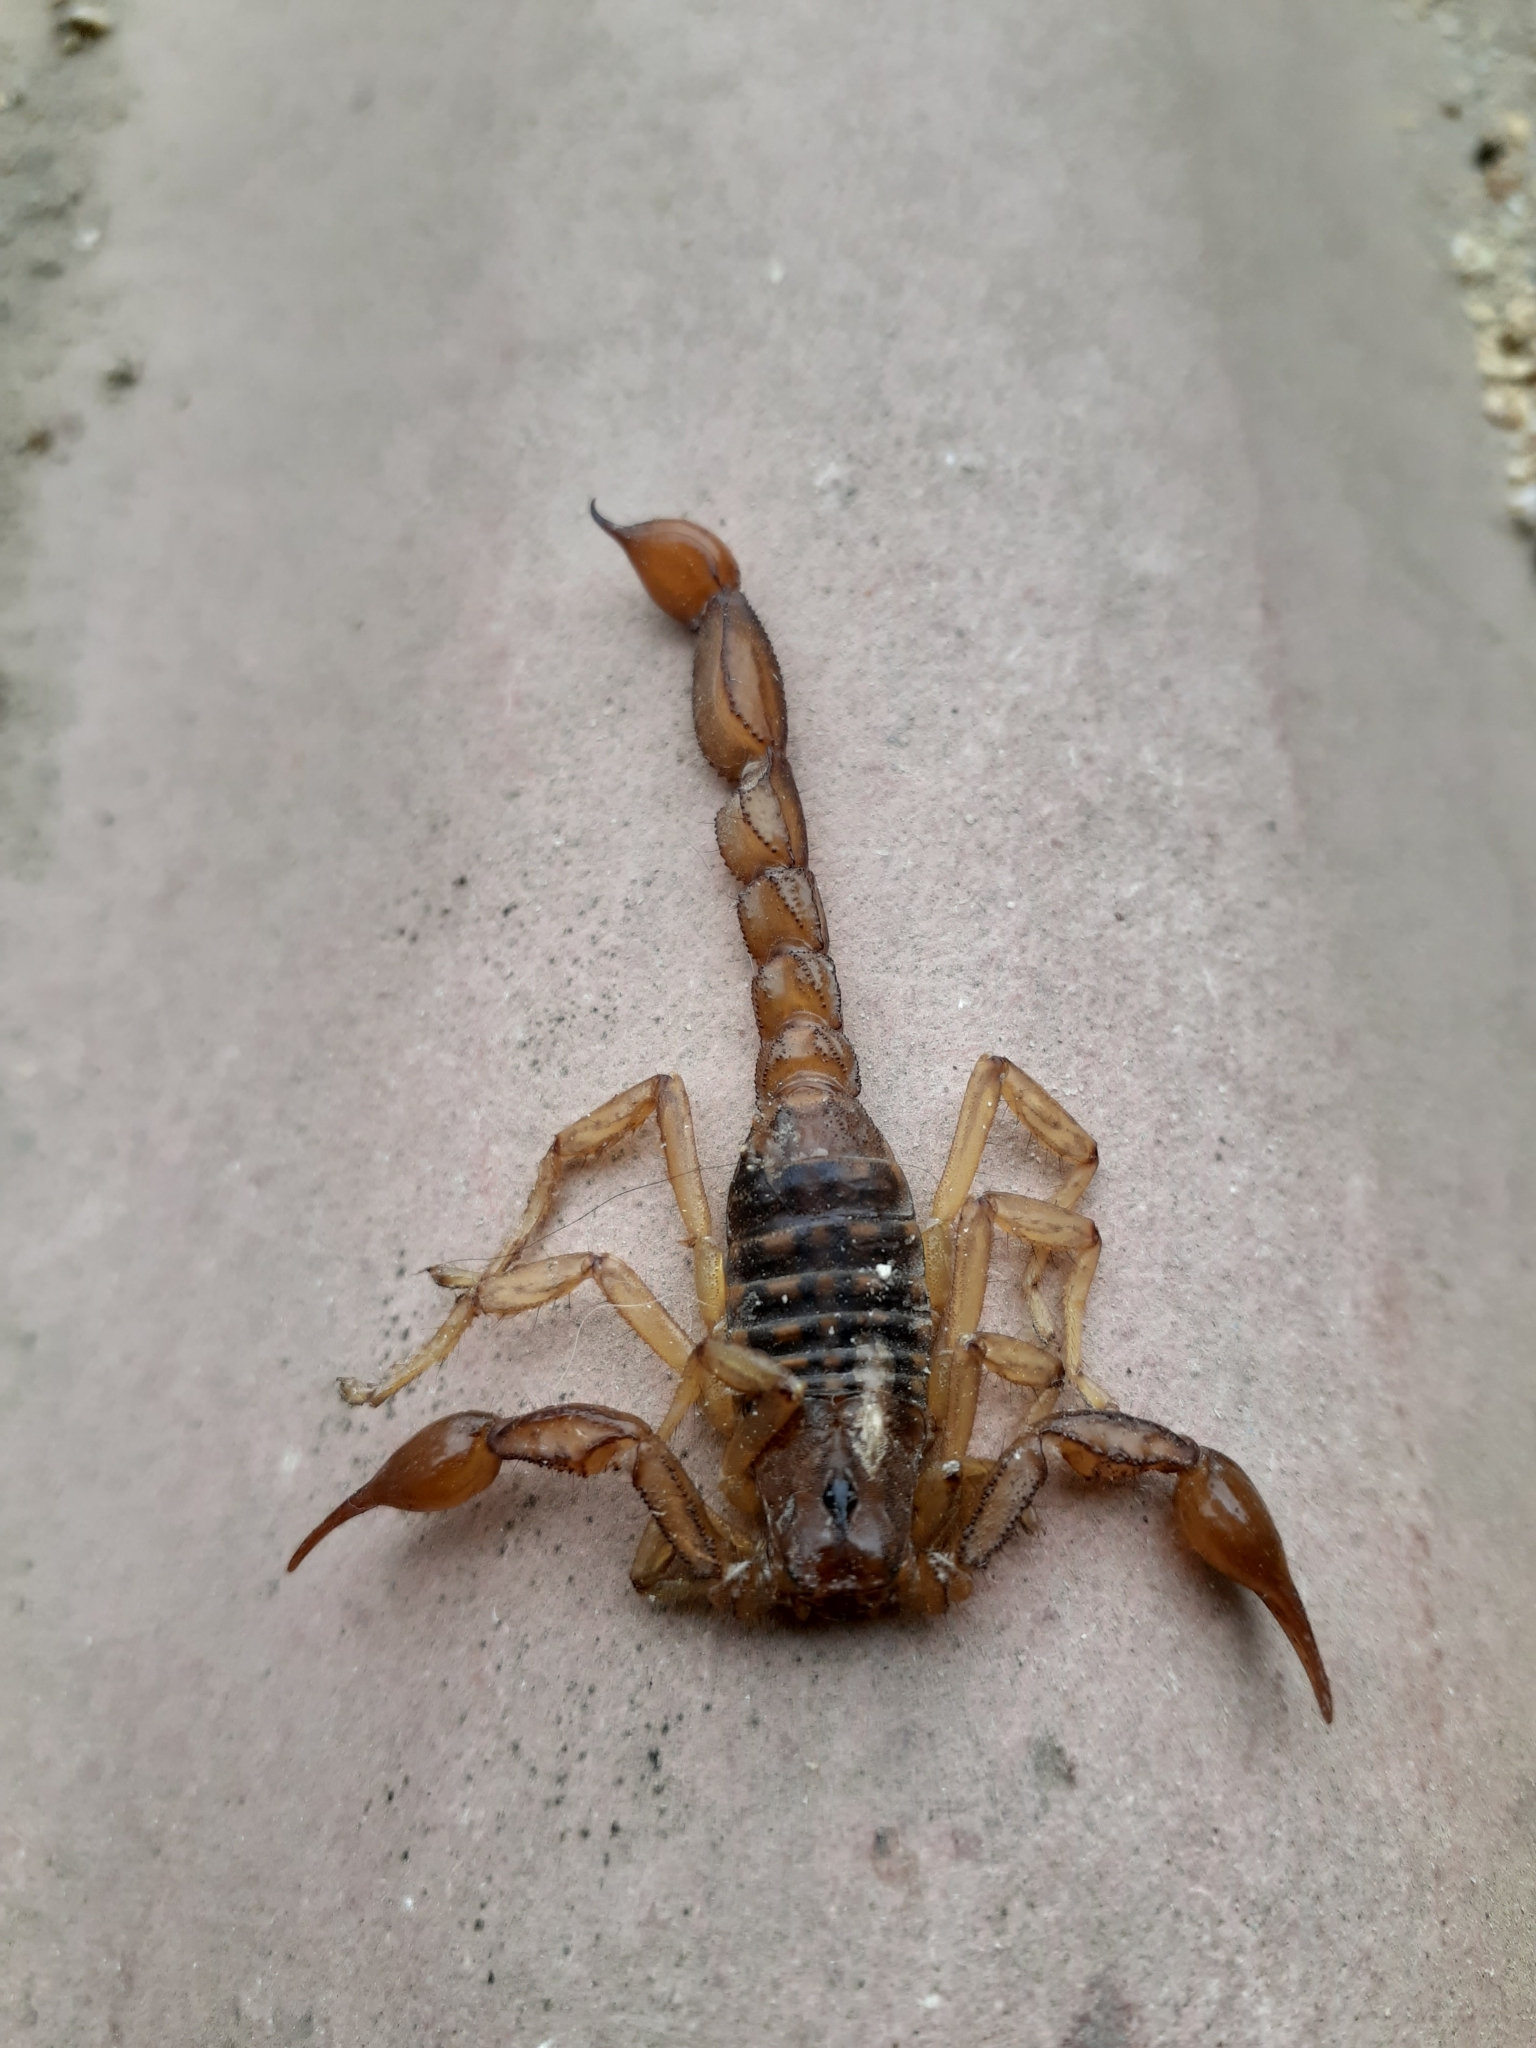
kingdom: Animalia
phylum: Arthropoda
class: Arachnida
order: Scorpiones
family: Caraboctonidae
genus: Hadruroides
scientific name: Hadruroides lunatus
